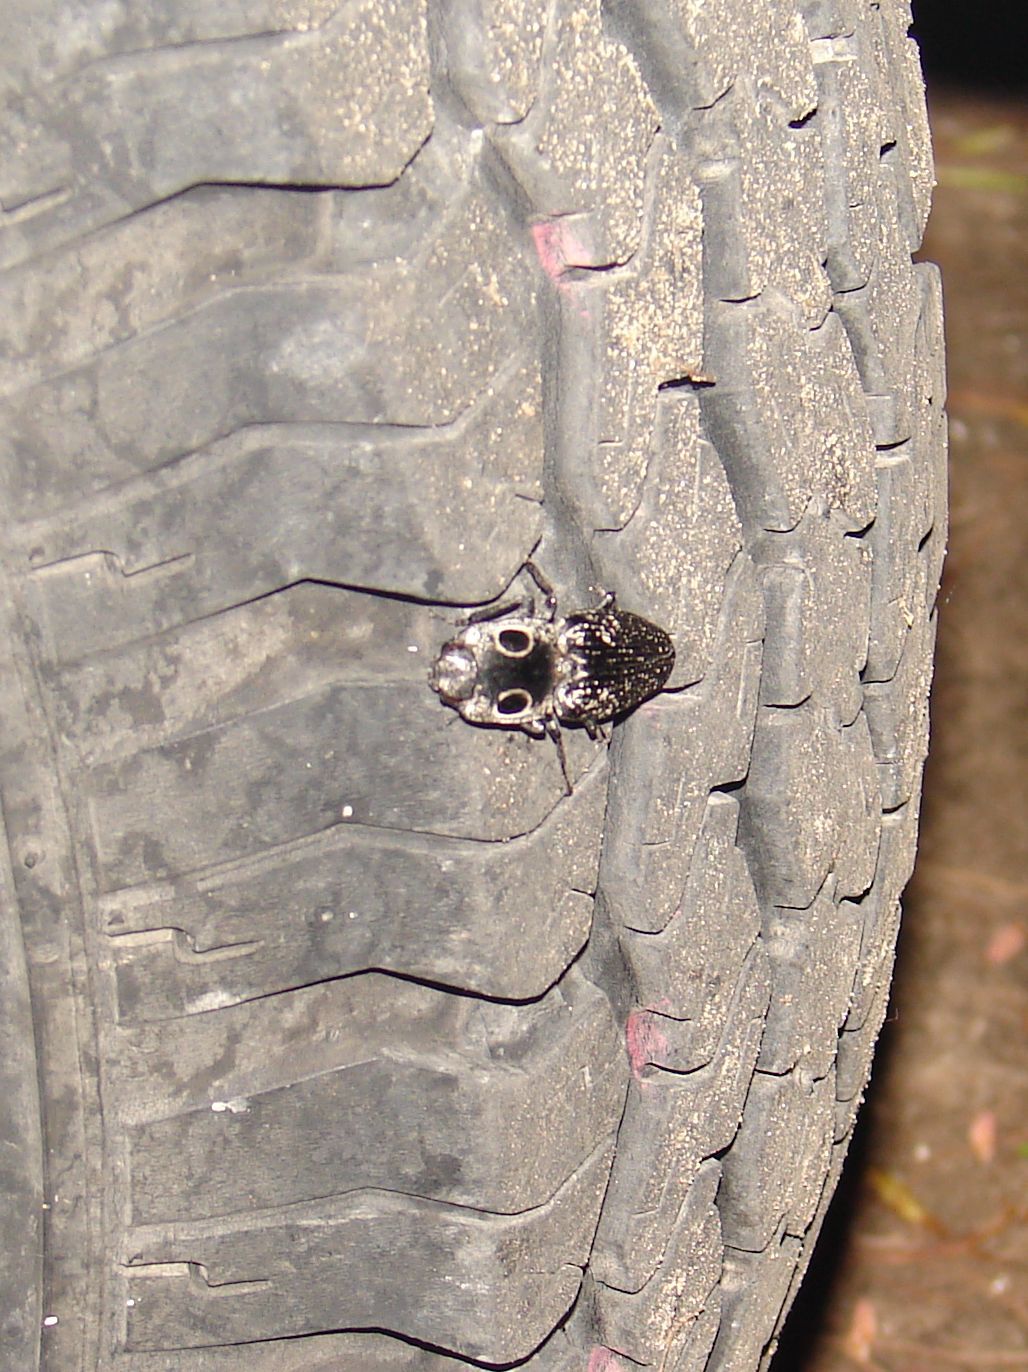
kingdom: Animalia
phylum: Arthropoda
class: Insecta
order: Coleoptera
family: Elateridae
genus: Alaus
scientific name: Alaus oculatus
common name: Eastern eyed click beetle
